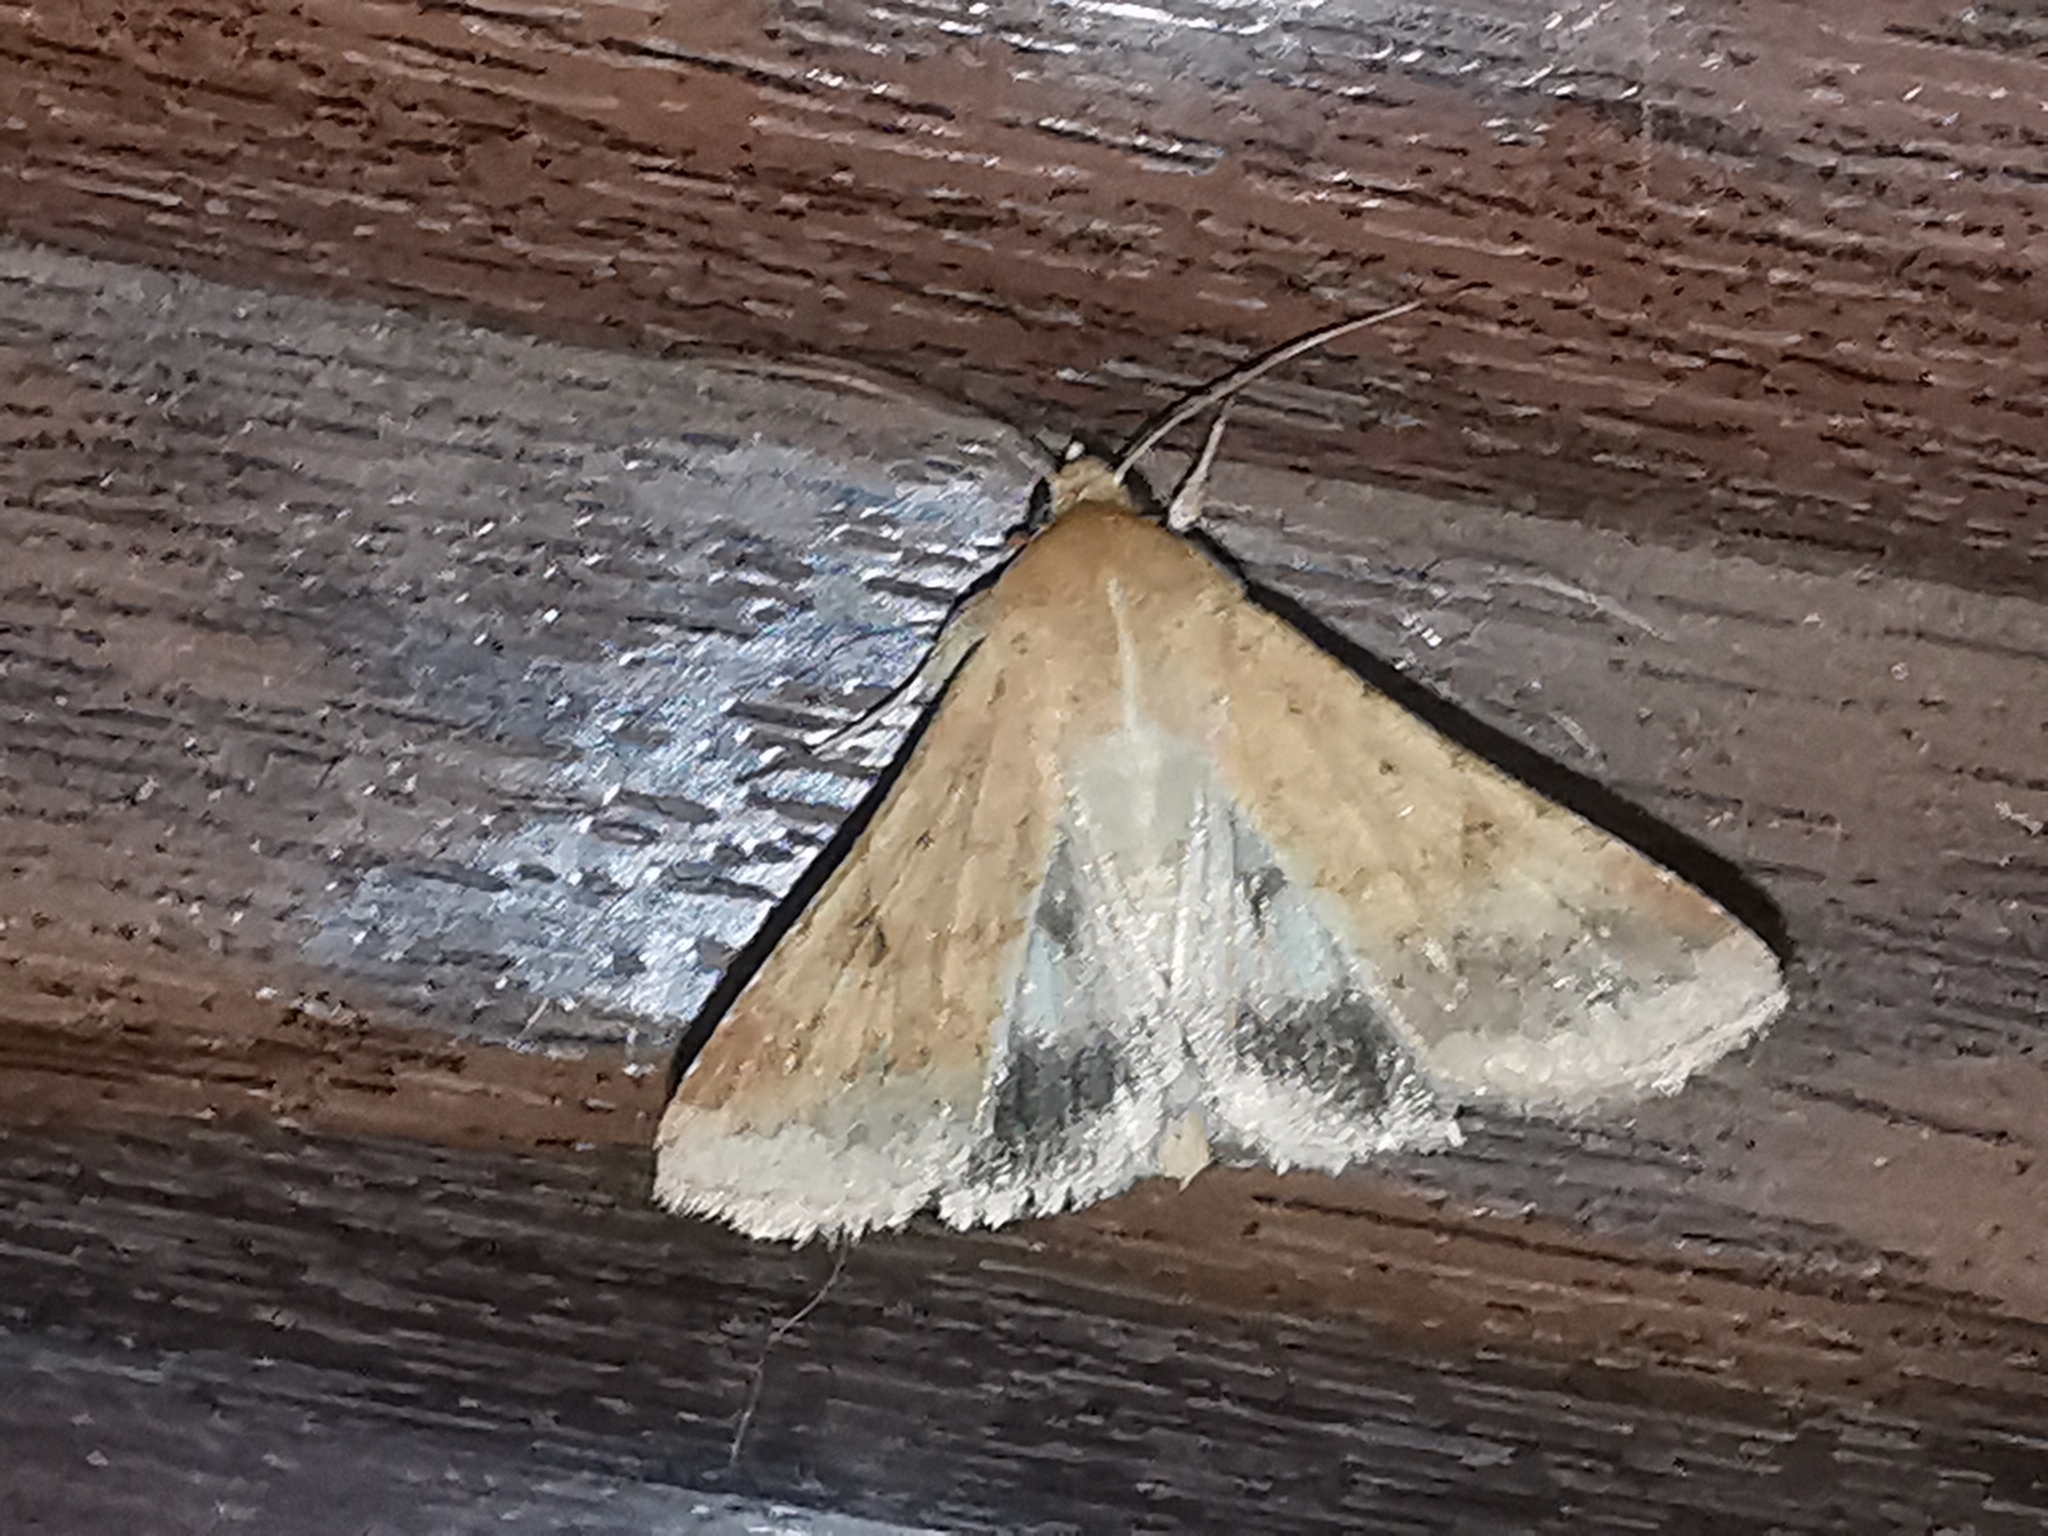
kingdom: Animalia
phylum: Arthropoda
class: Insecta
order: Lepidoptera
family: Noctuidae
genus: Helicoverpa
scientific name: Helicoverpa armigera
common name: Cotton bollworm
